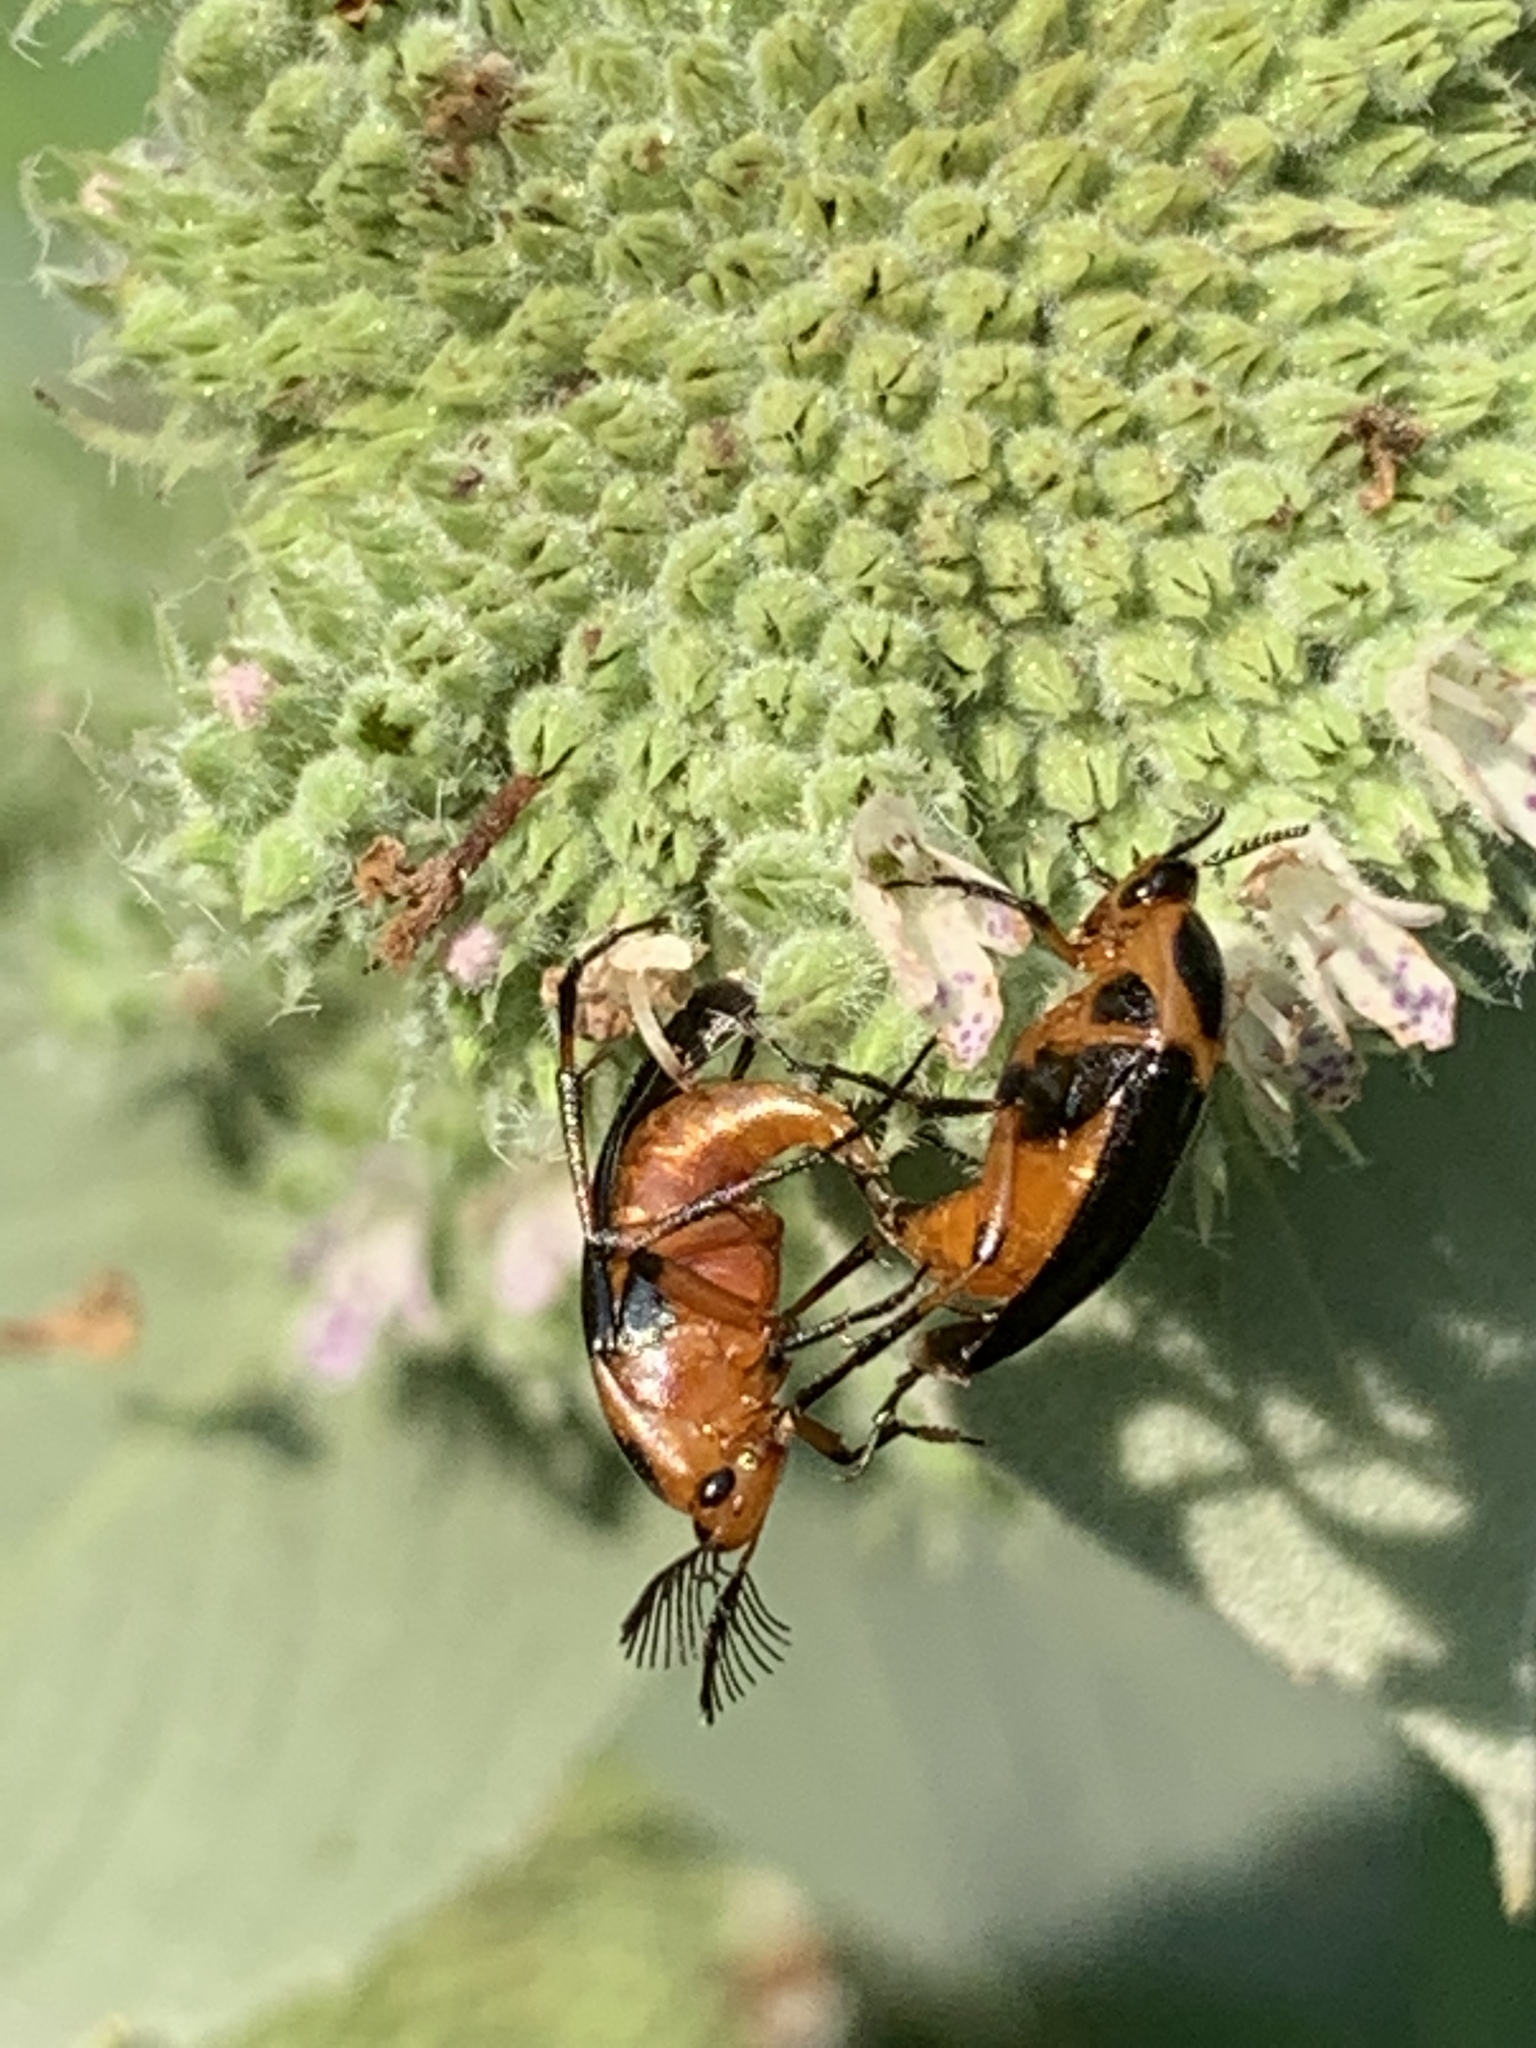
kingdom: Animalia
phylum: Arthropoda
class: Insecta
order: Coleoptera
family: Ripiphoridae
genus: Macrosiagon
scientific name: Macrosiagon limbatum
